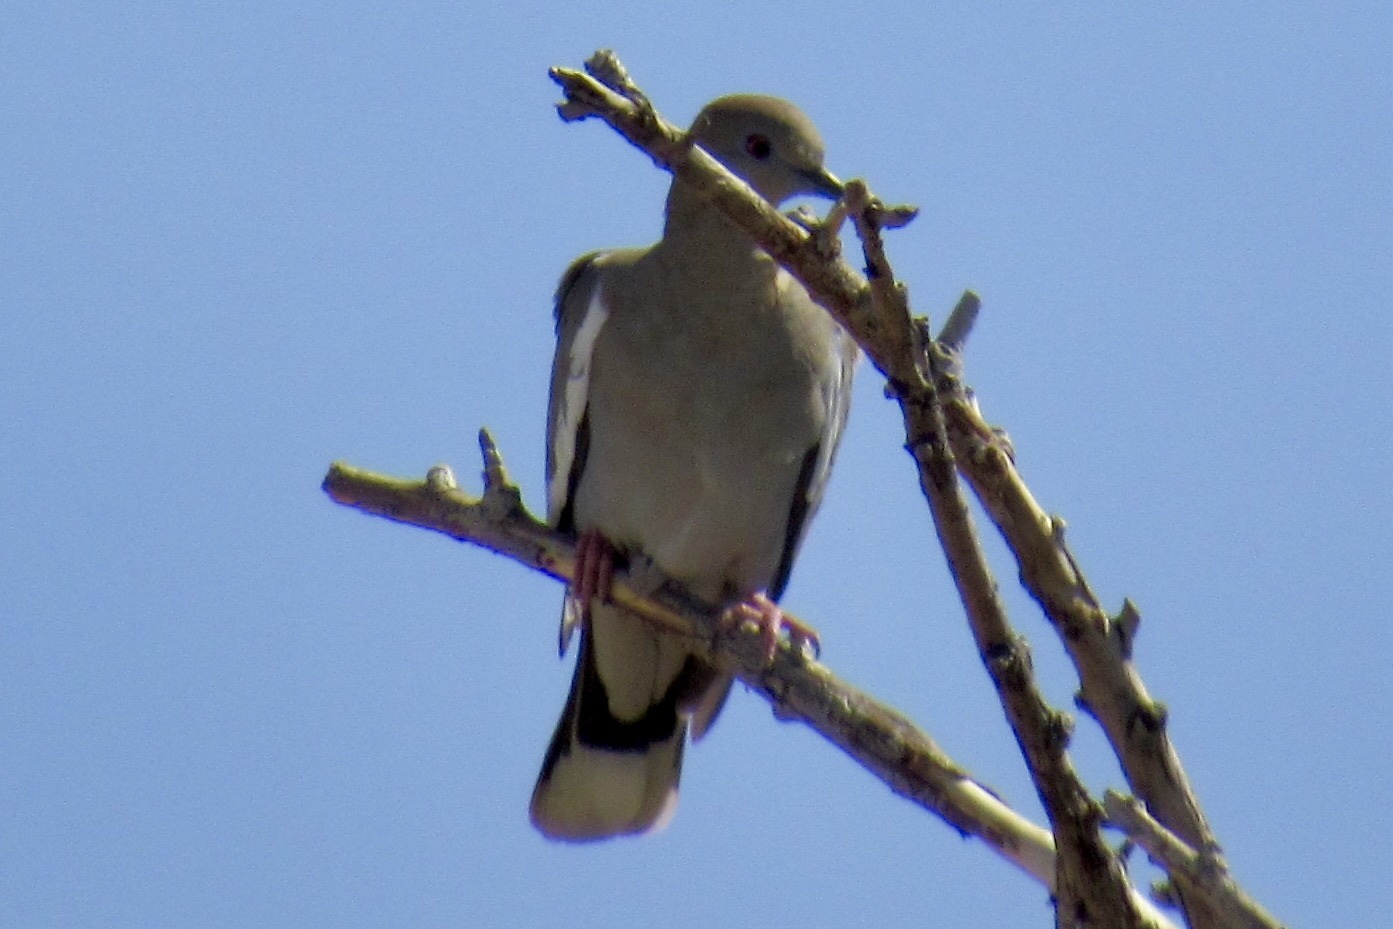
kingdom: Animalia
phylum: Chordata
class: Aves
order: Columbiformes
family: Columbidae
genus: Zenaida
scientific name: Zenaida asiatica
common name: White-winged dove
